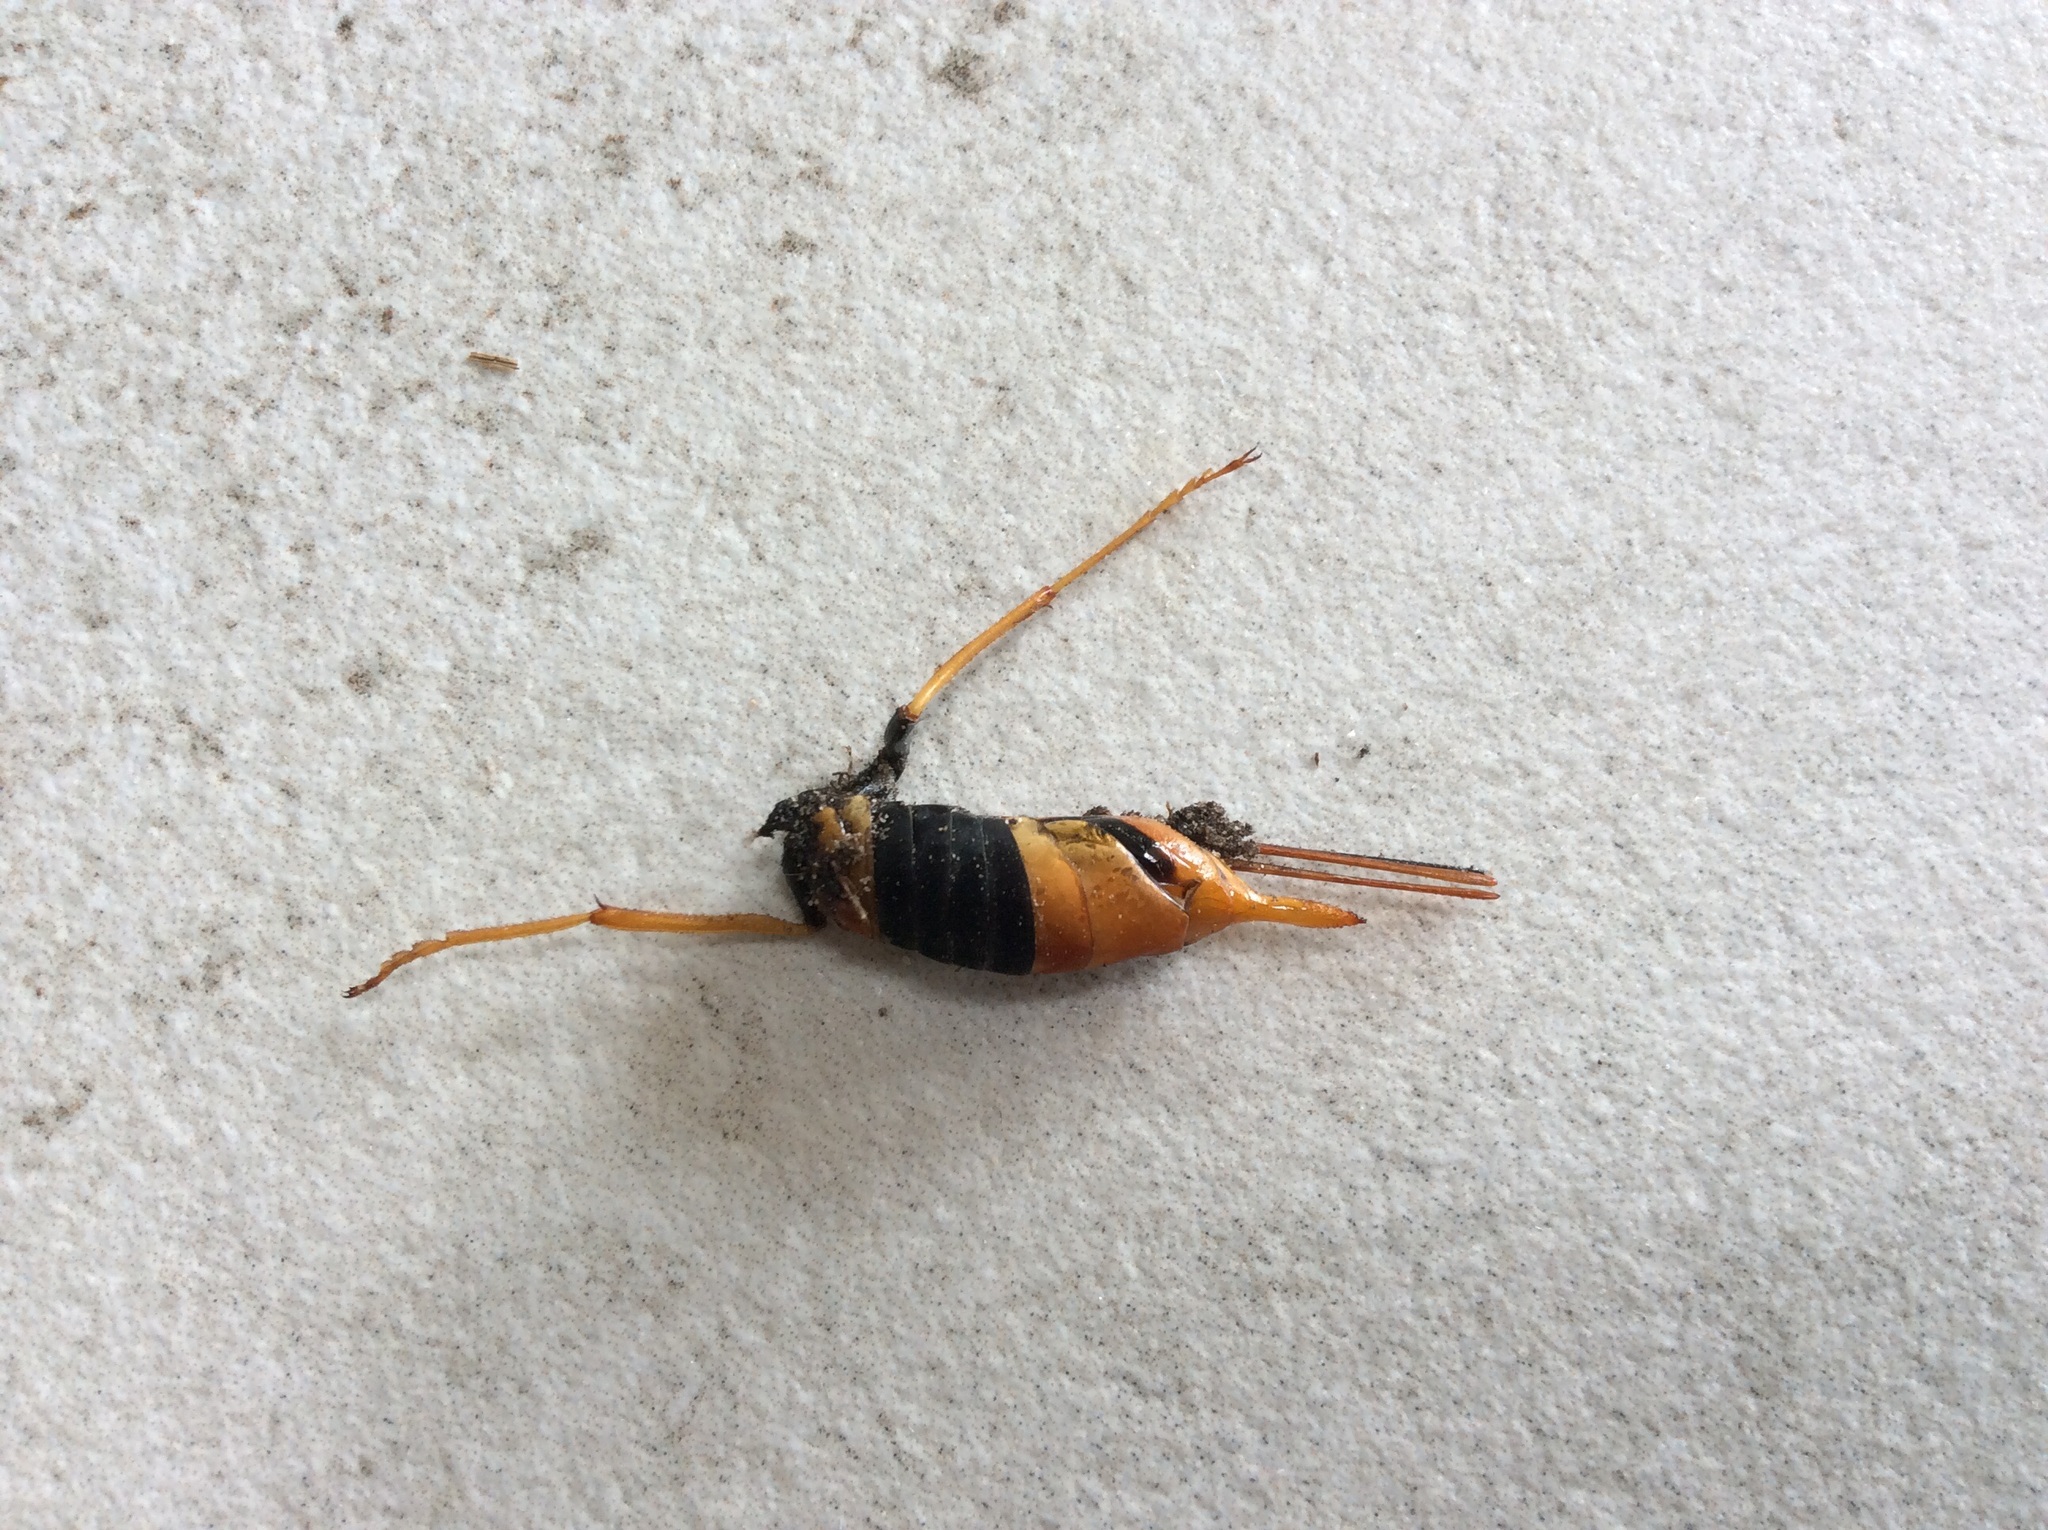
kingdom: Animalia
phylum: Arthropoda
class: Insecta
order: Hymenoptera
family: Siricidae
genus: Urocerus
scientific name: Urocerus gigas
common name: Giant woodwasp
